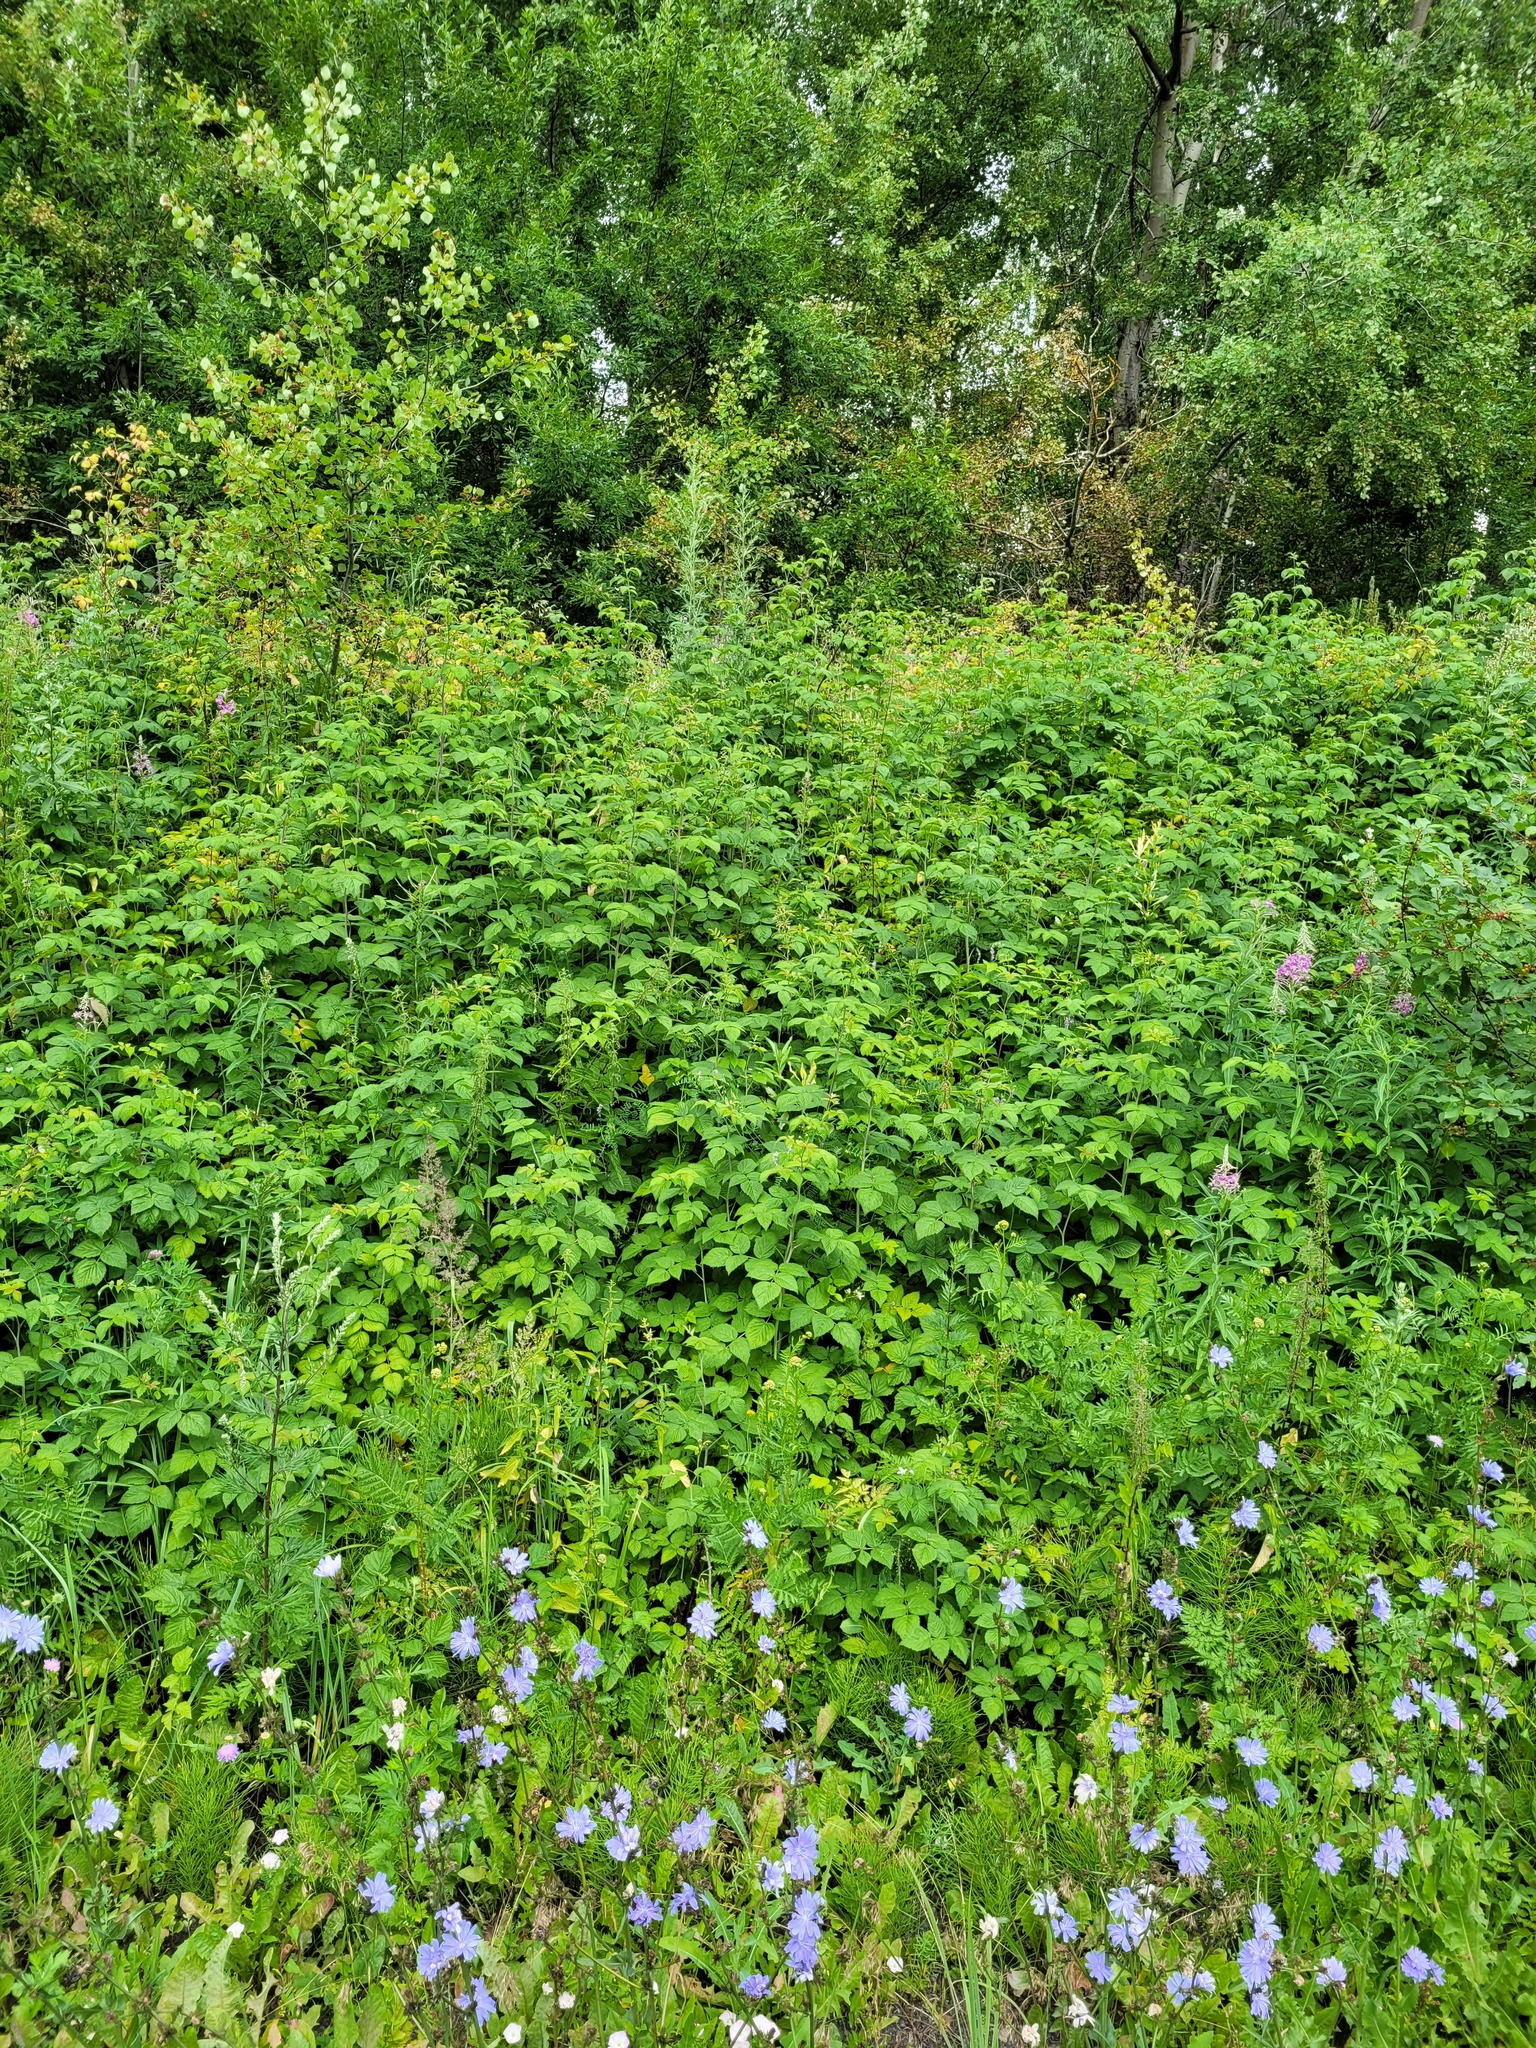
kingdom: Plantae
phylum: Tracheophyta
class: Magnoliopsida
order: Rosales
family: Rosaceae
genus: Rubus
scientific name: Rubus idaeus
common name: Raspberry
